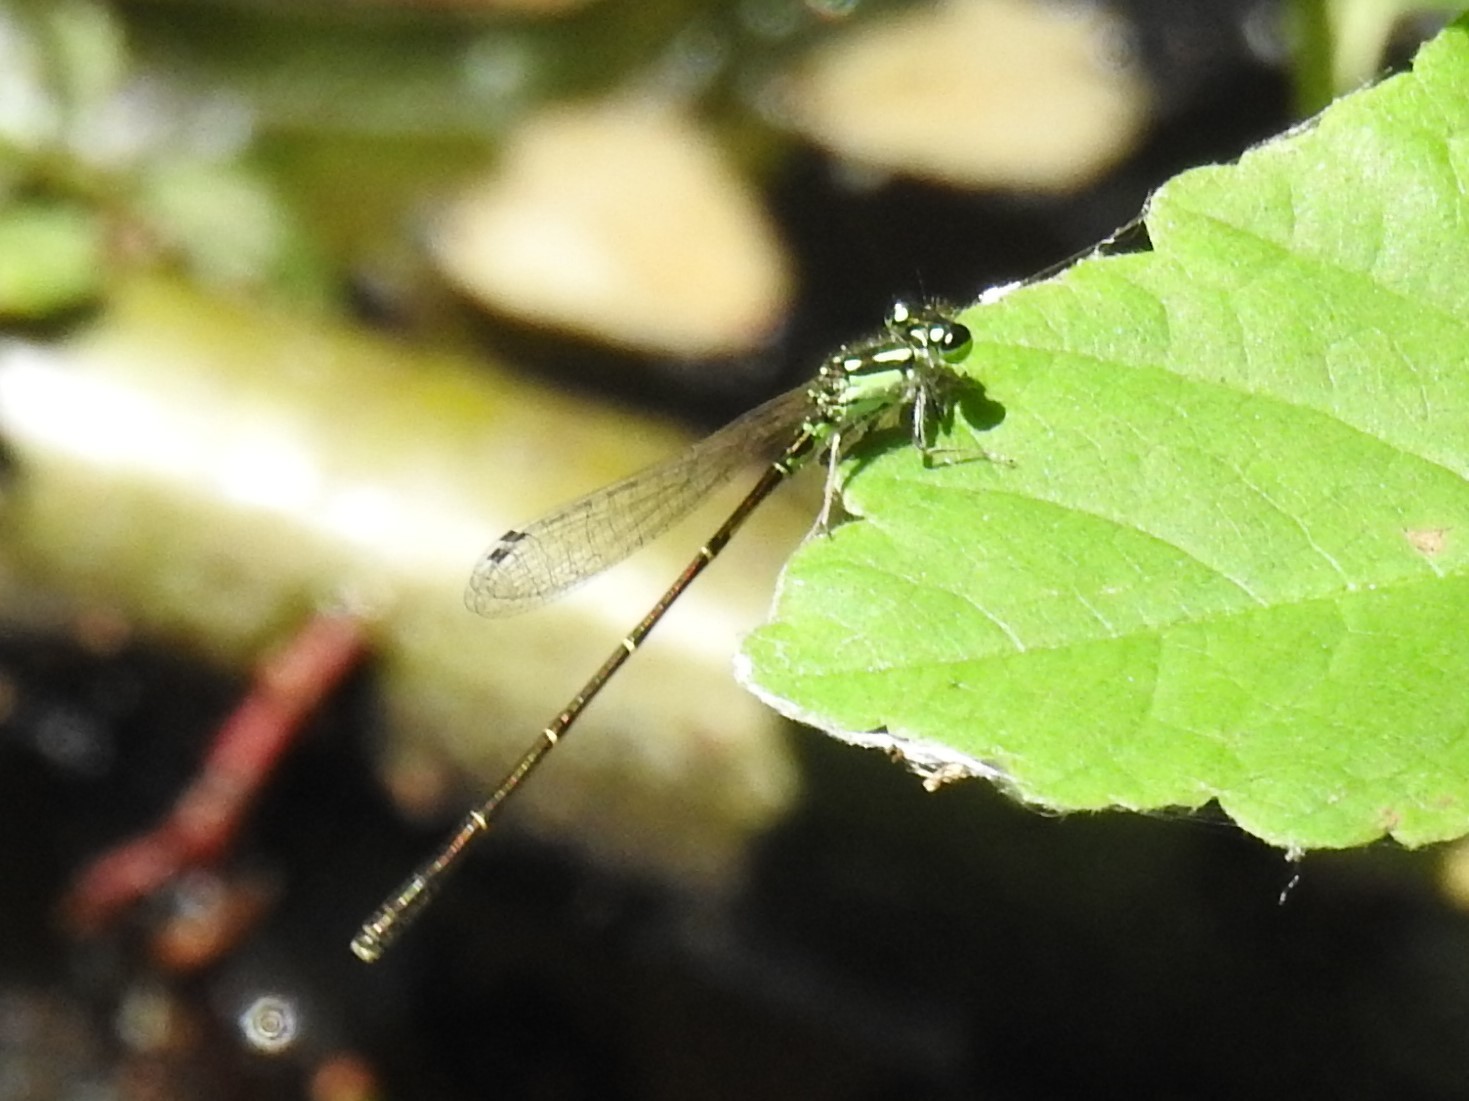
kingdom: Animalia
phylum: Arthropoda
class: Insecta
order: Odonata
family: Coenagrionidae
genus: Ischnura
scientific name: Ischnura posita
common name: Fragile forktail
